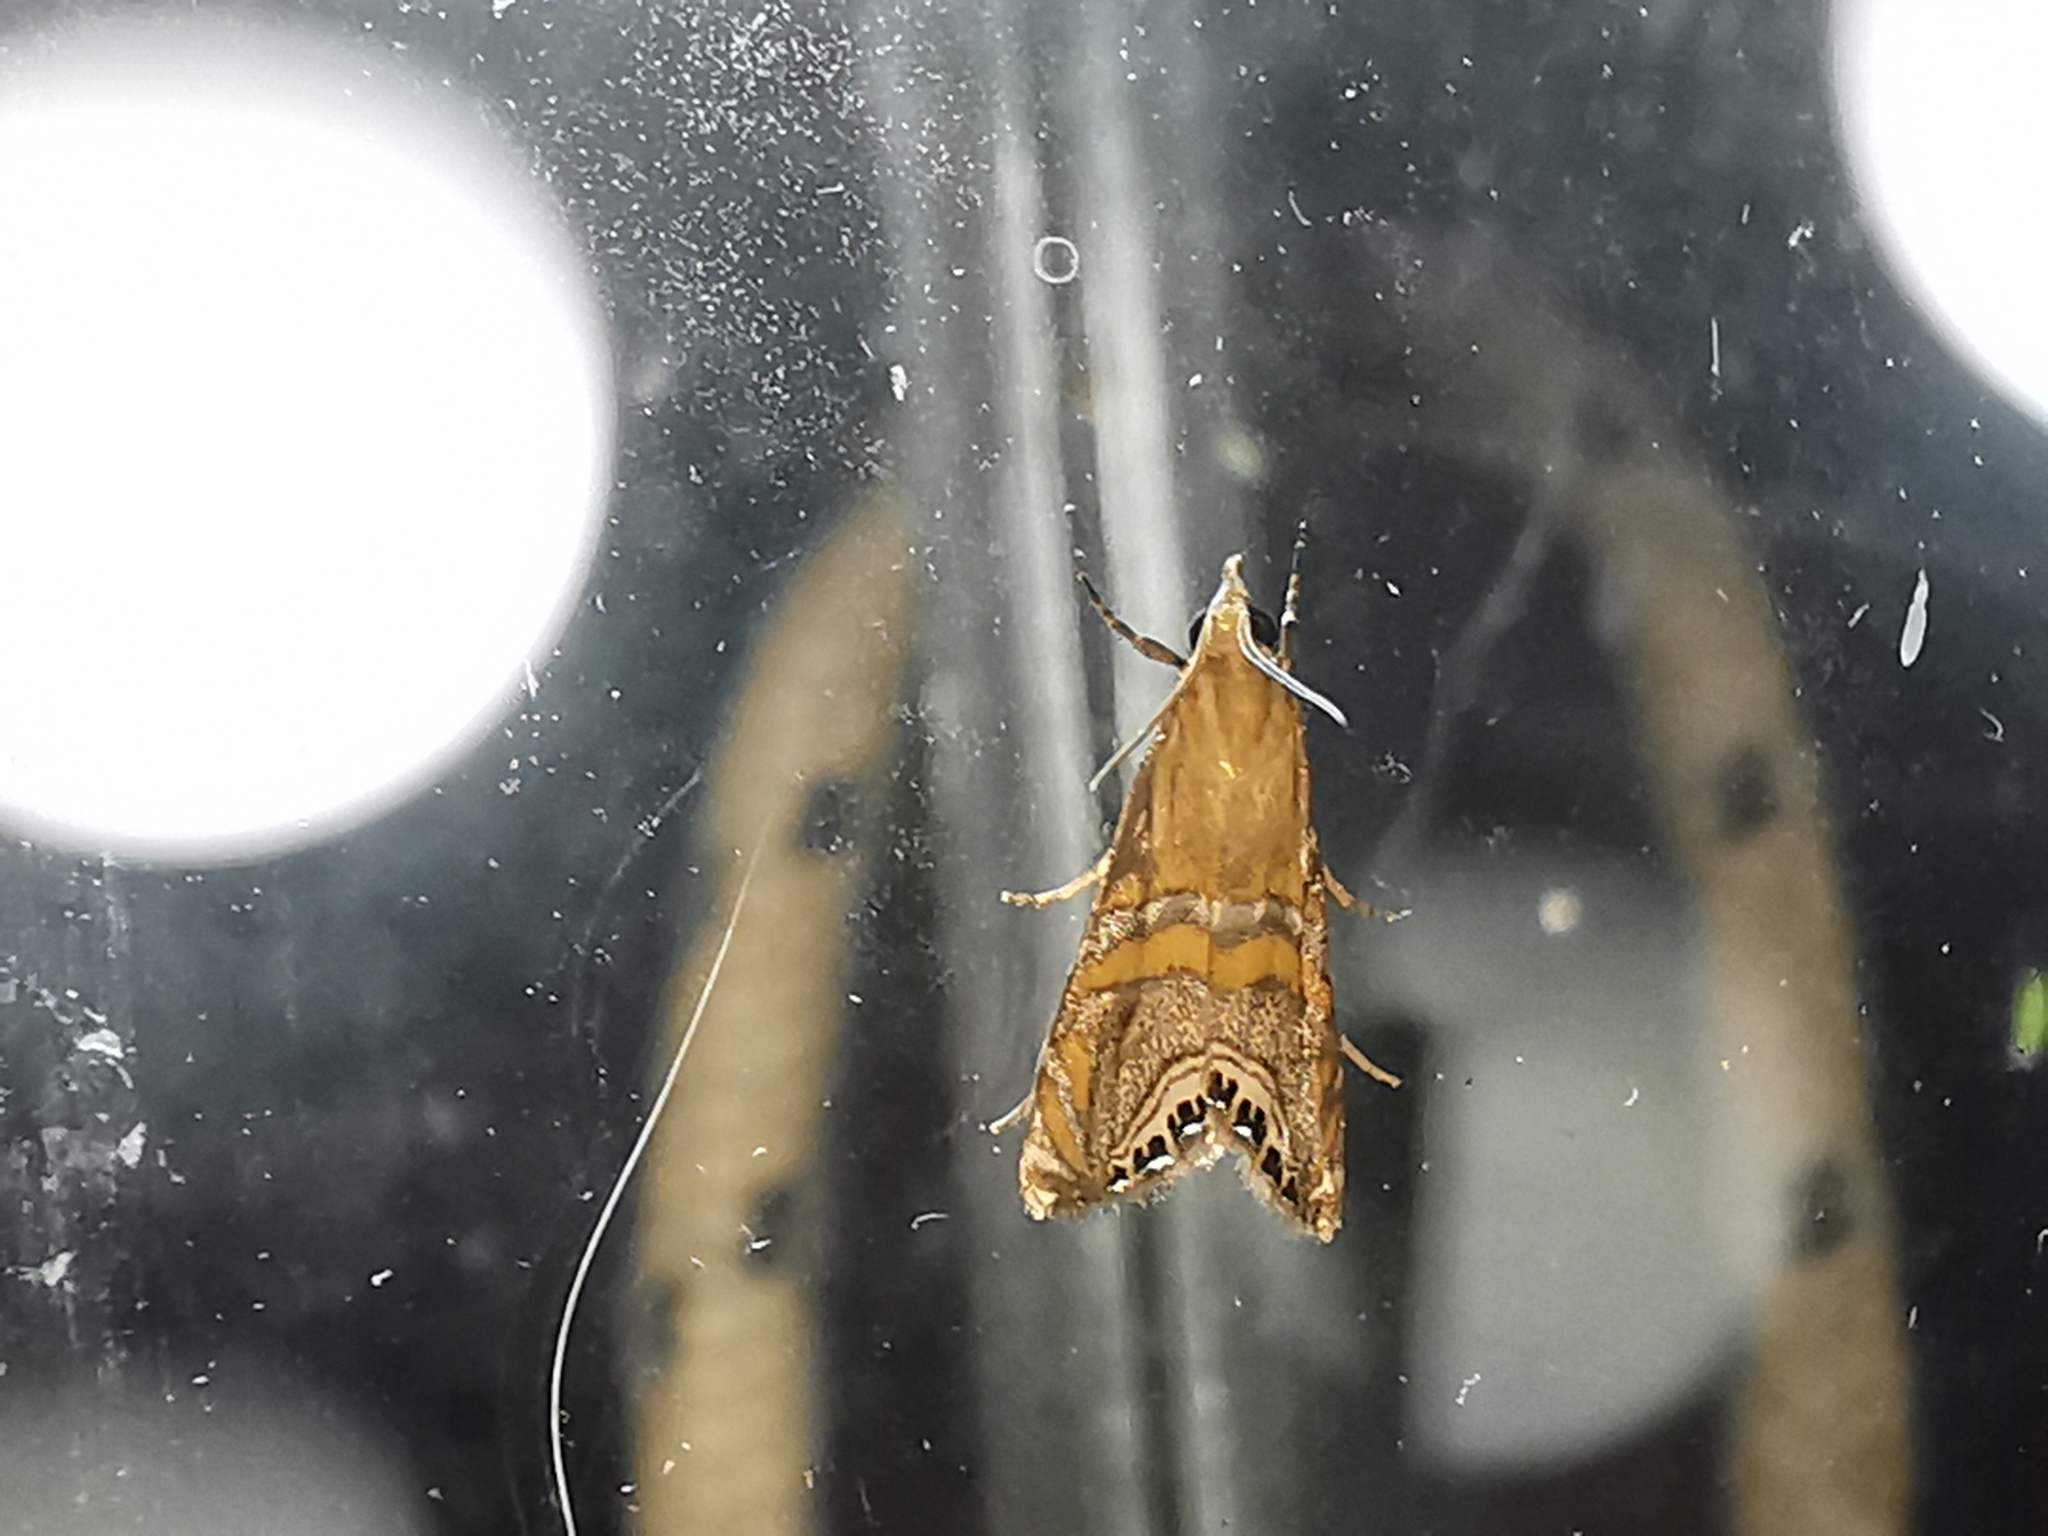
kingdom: Animalia
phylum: Arthropoda
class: Insecta
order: Lepidoptera
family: Crambidae
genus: Euchromius
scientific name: Euchromius bella
